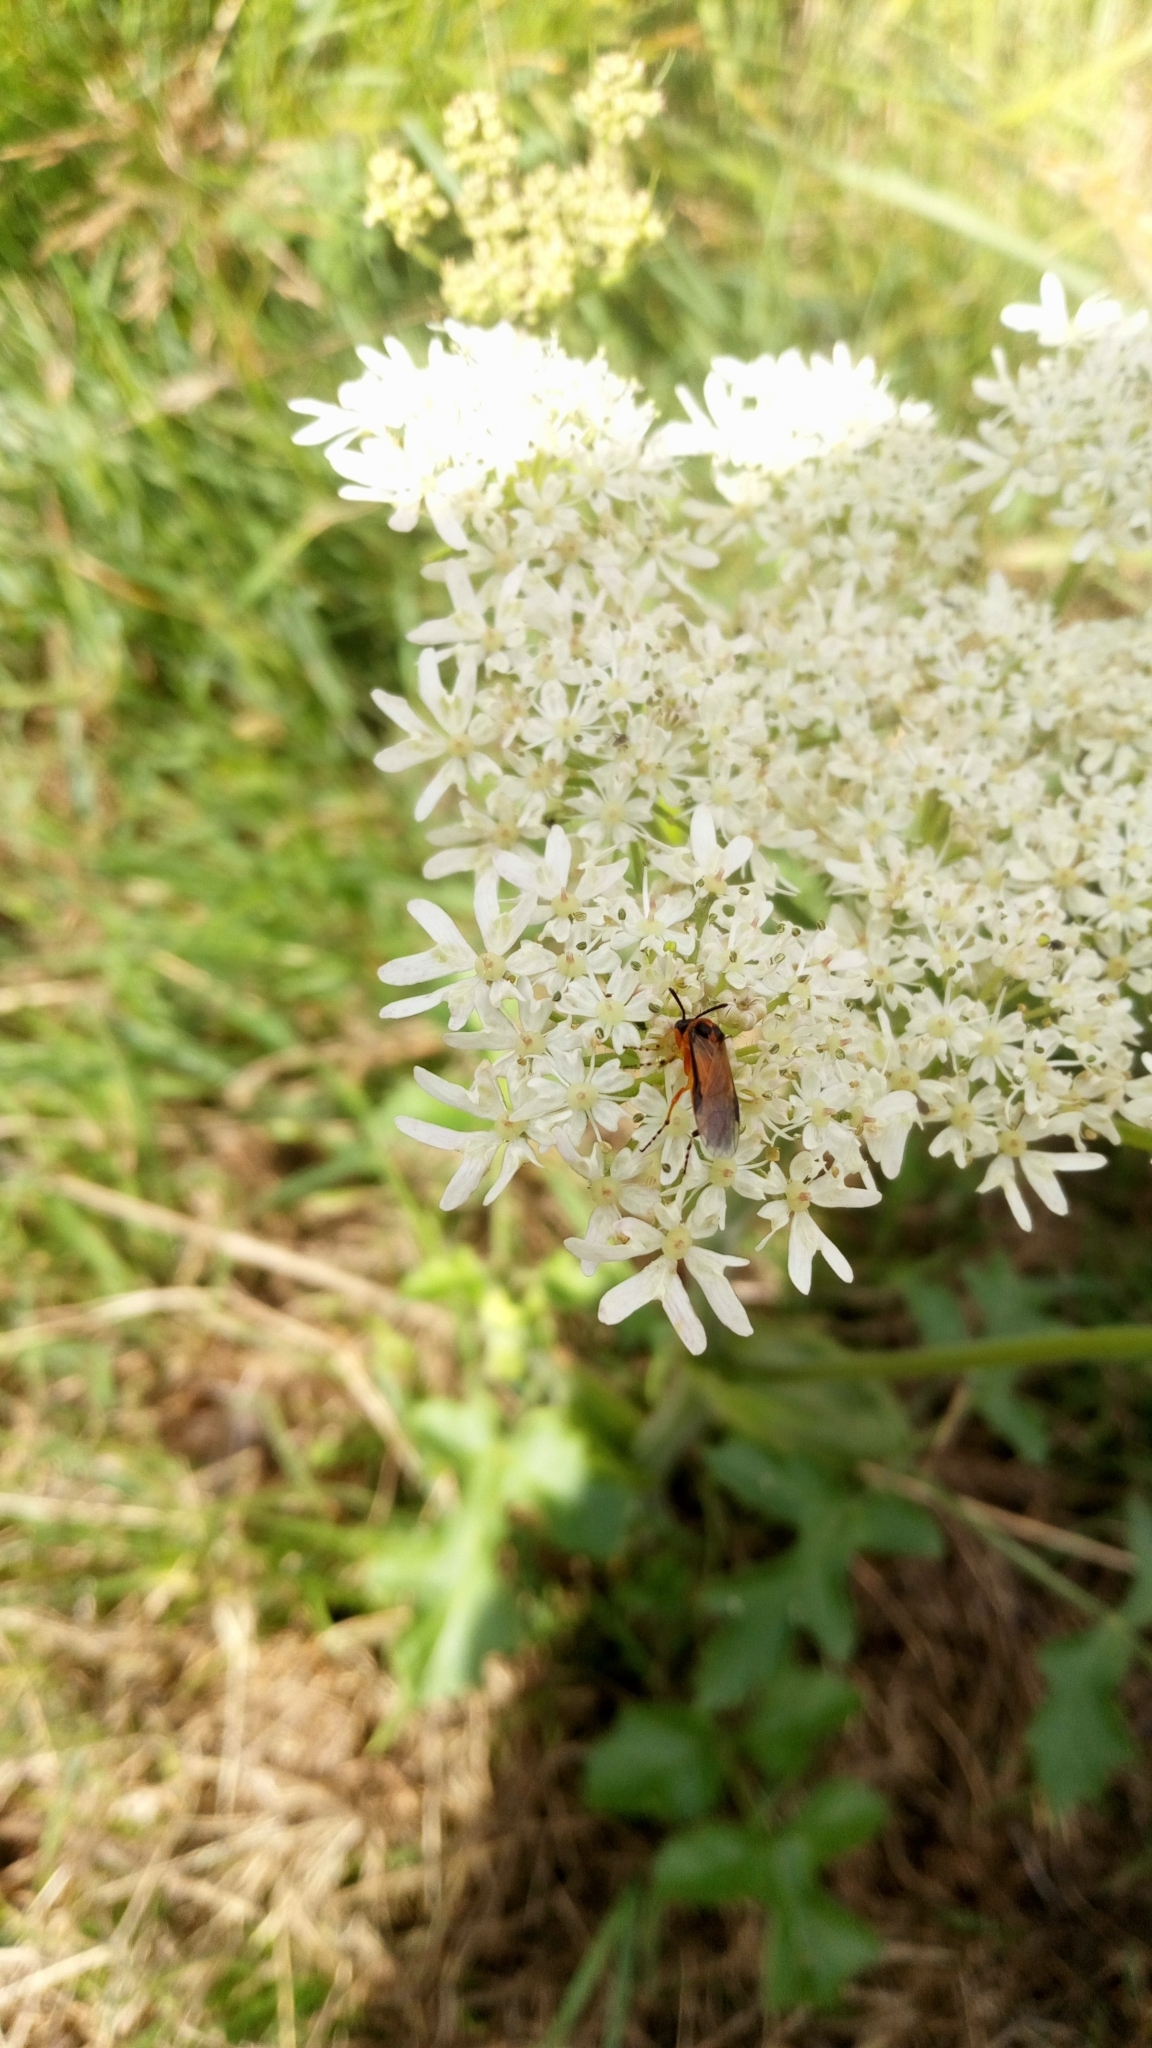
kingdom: Animalia
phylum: Arthropoda
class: Insecta
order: Hymenoptera
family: Tenthredinidae
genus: Athalia
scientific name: Athalia rosae
